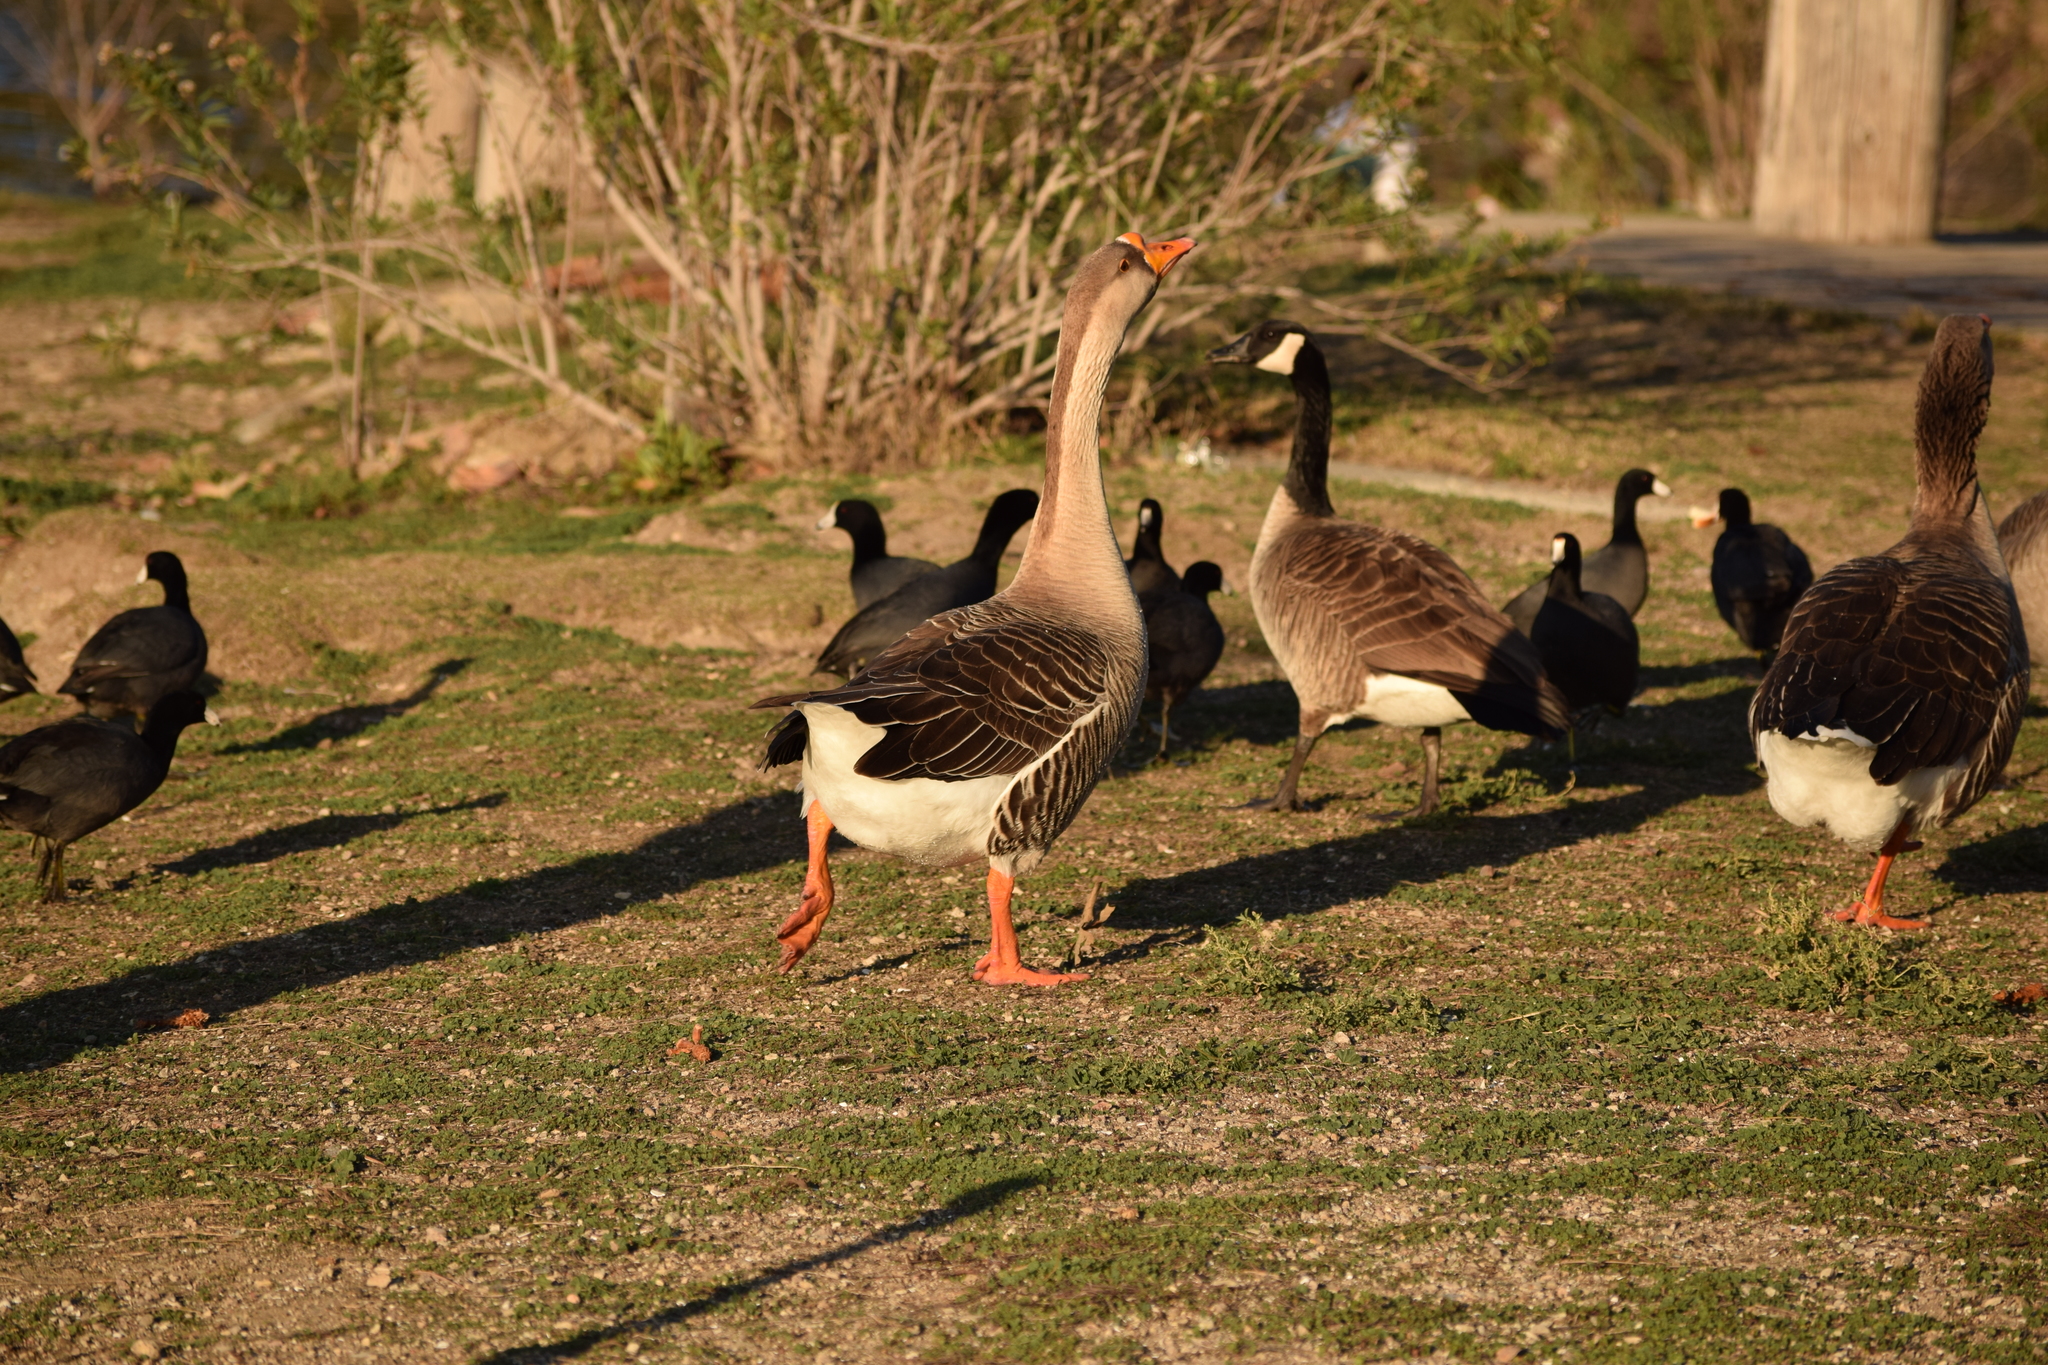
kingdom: Animalia
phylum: Chordata
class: Aves
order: Anseriformes
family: Anatidae
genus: Anser
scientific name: Anser
